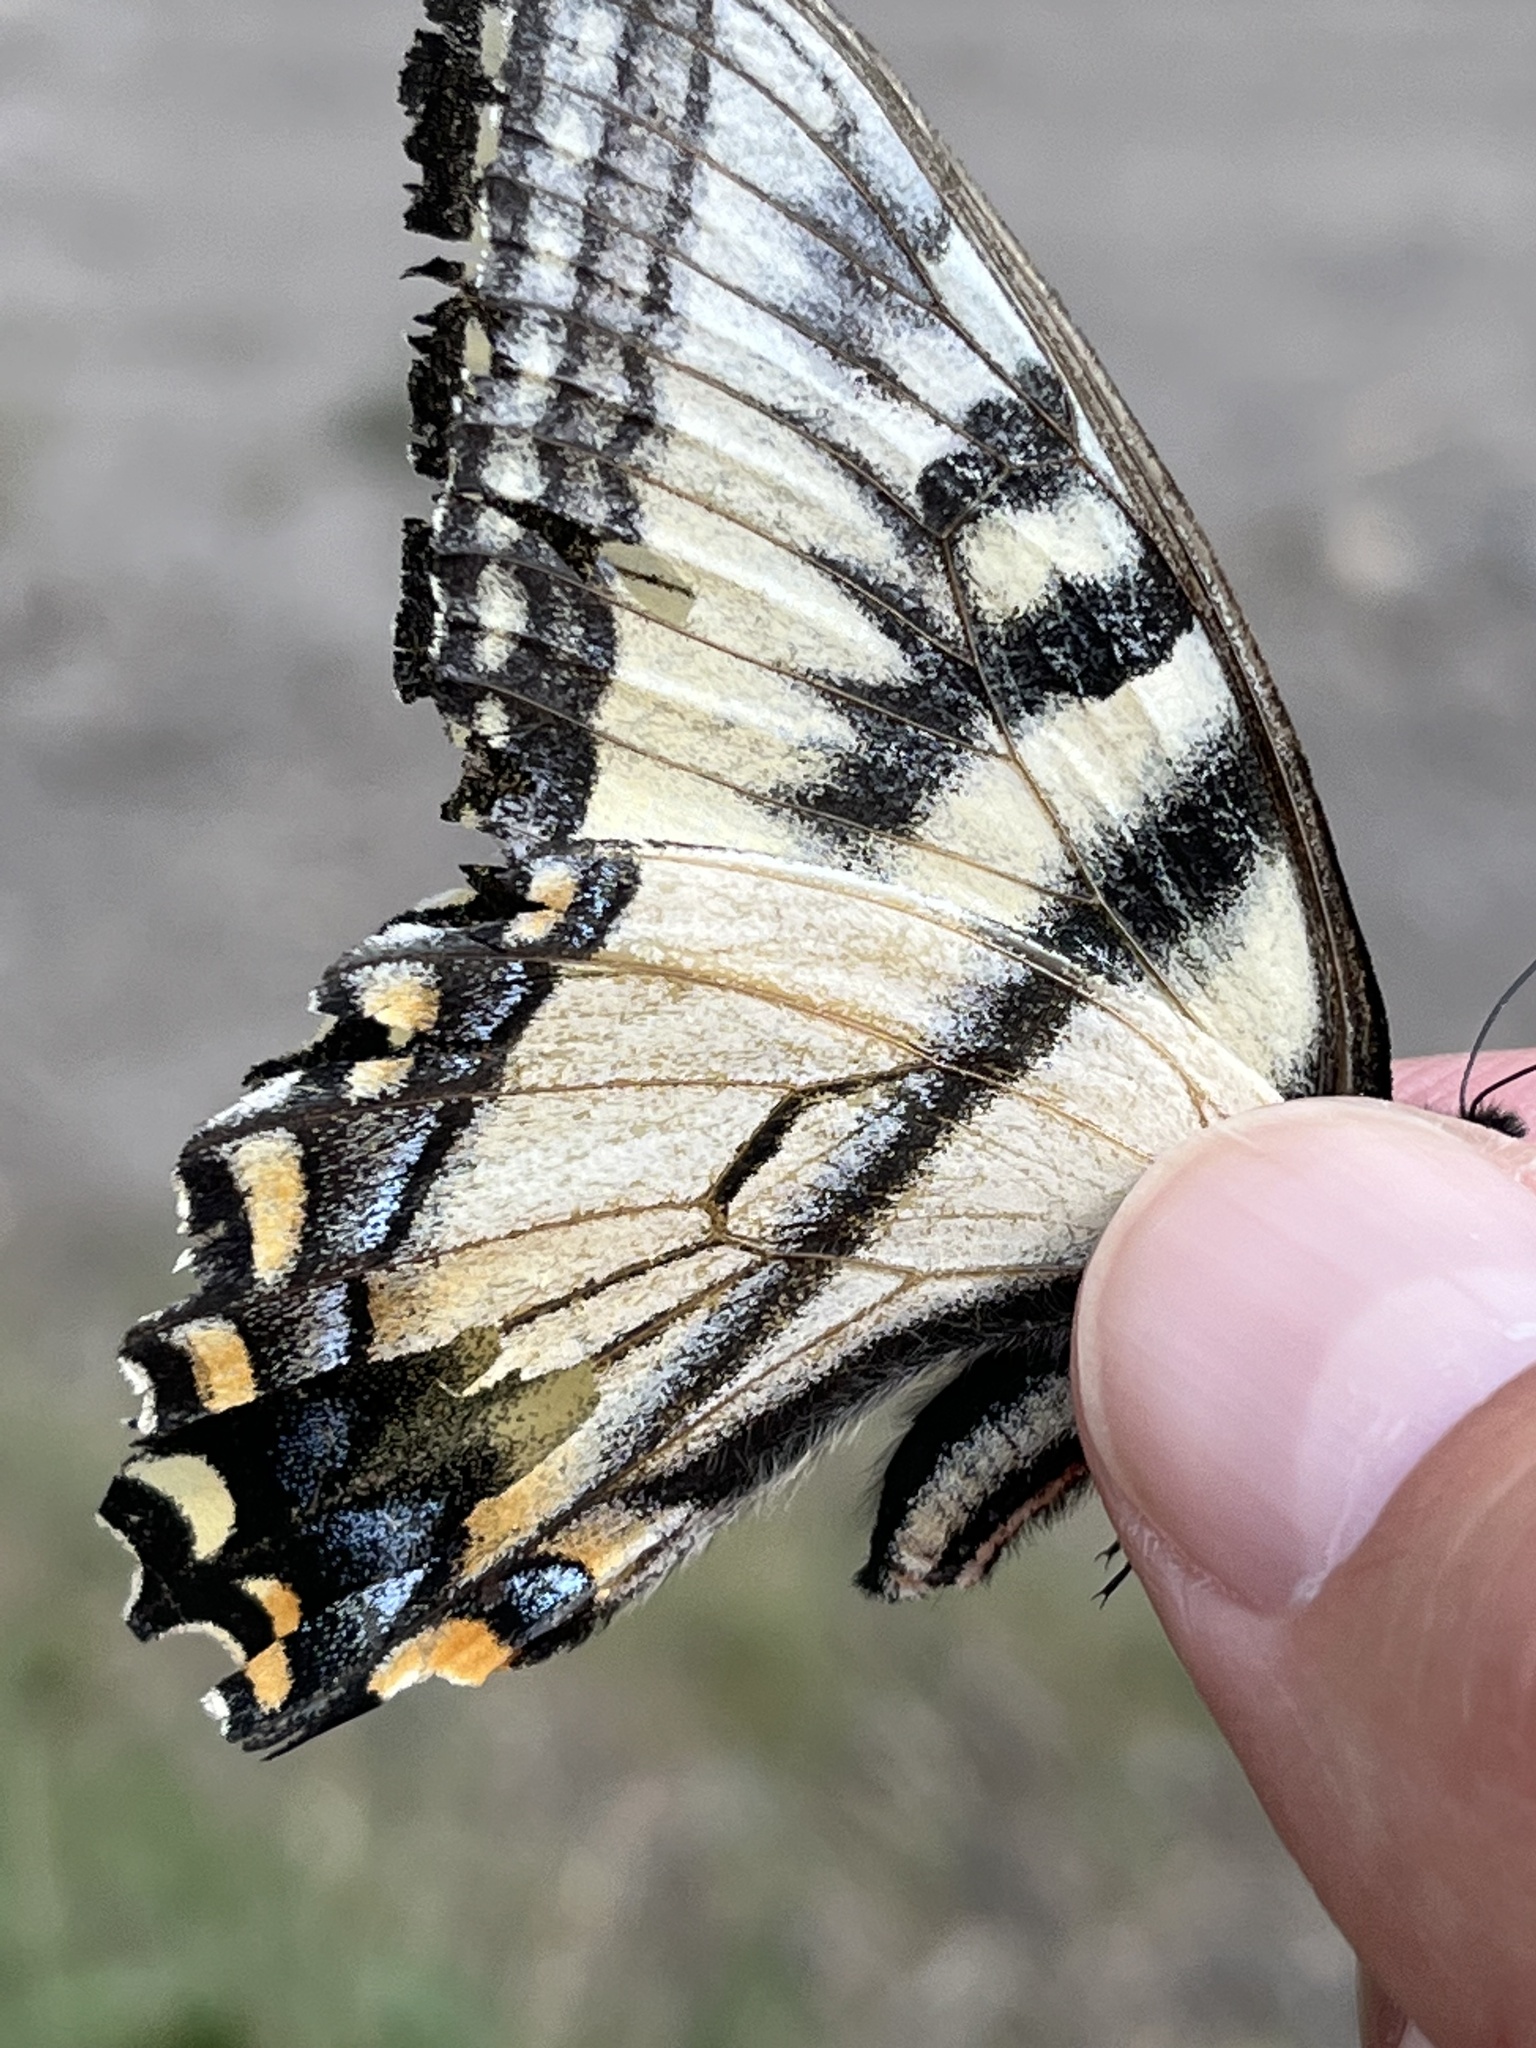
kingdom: Animalia
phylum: Arthropoda
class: Insecta
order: Lepidoptera
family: Papilionidae
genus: Papilio
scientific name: Papilio canadensis
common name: Canadian tiger swallowtail
